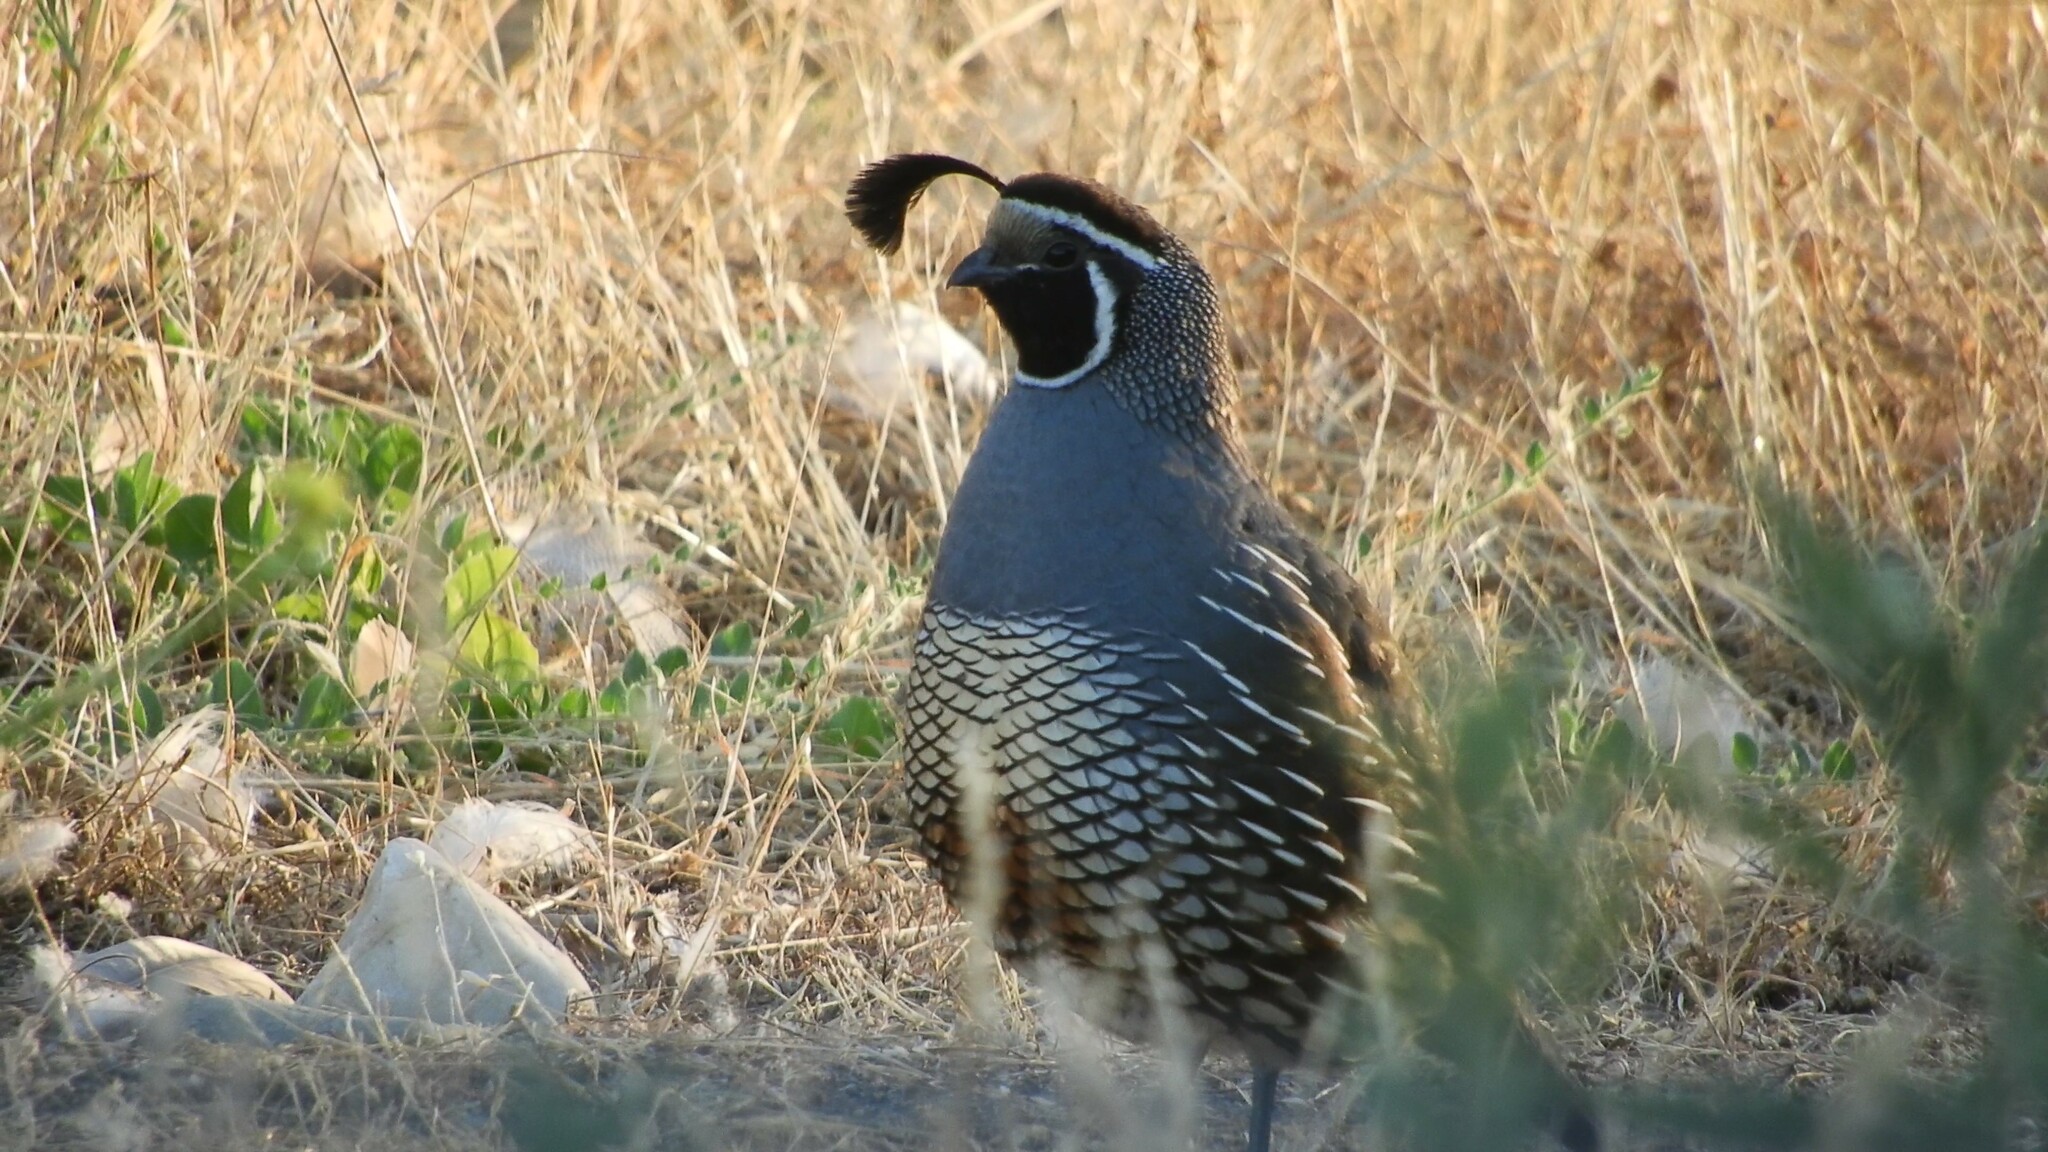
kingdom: Animalia
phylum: Chordata
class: Aves
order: Galliformes
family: Odontophoridae
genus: Callipepla
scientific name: Callipepla californica
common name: California quail
